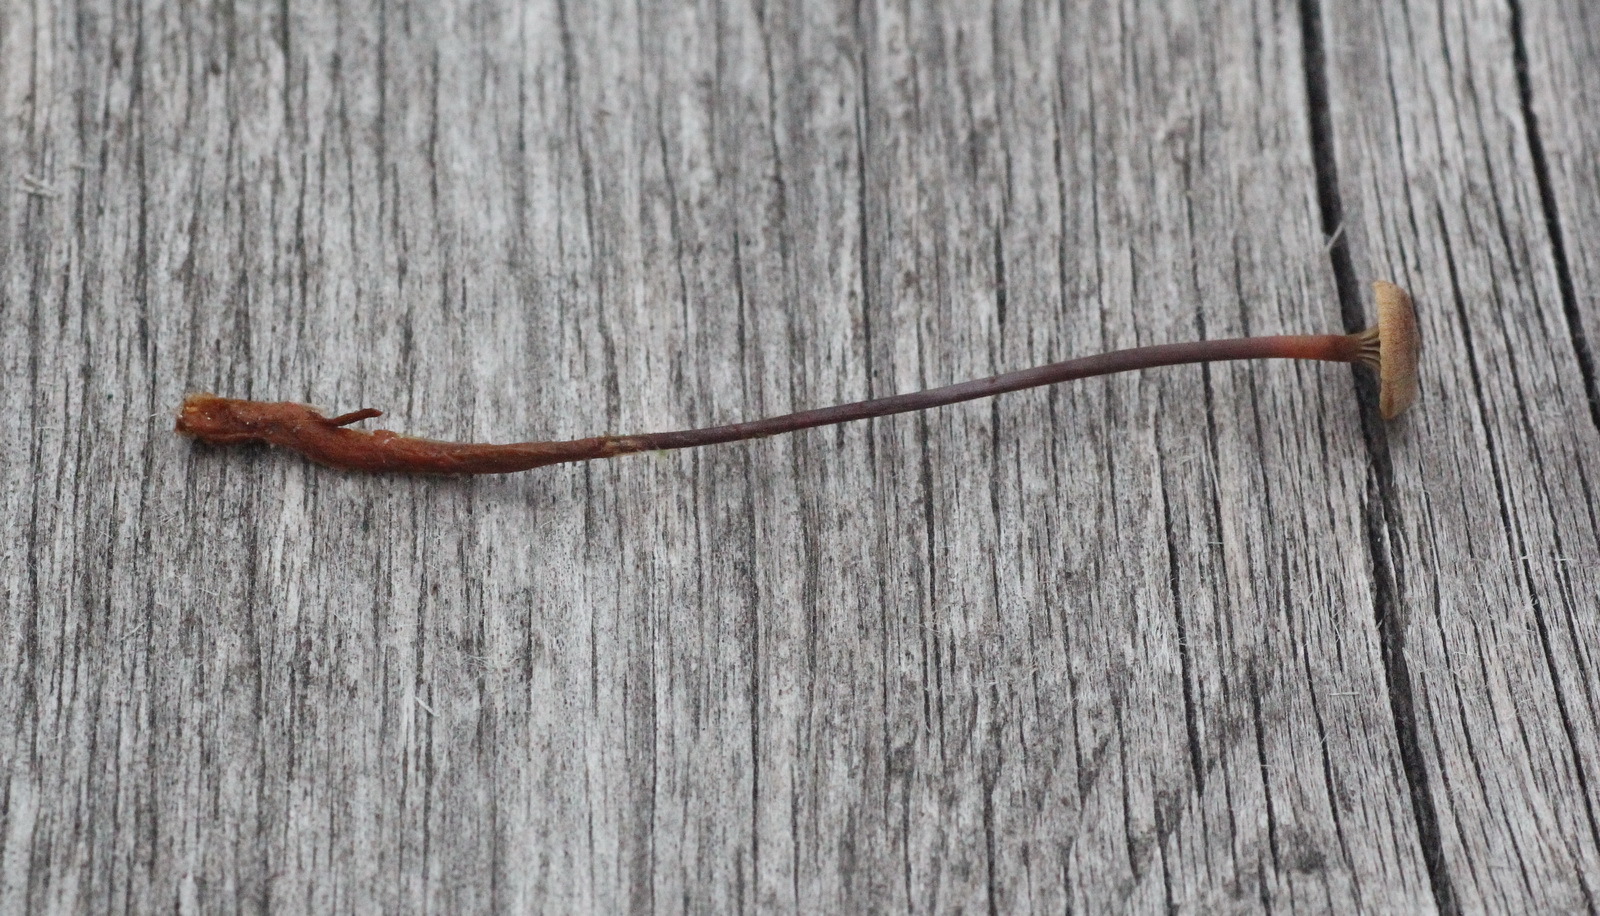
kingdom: Fungi
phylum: Basidiomycota
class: Agaricomycetes
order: Agaricales
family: Mycenaceae
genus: Xeromphalina
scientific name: Xeromphalina cornui
